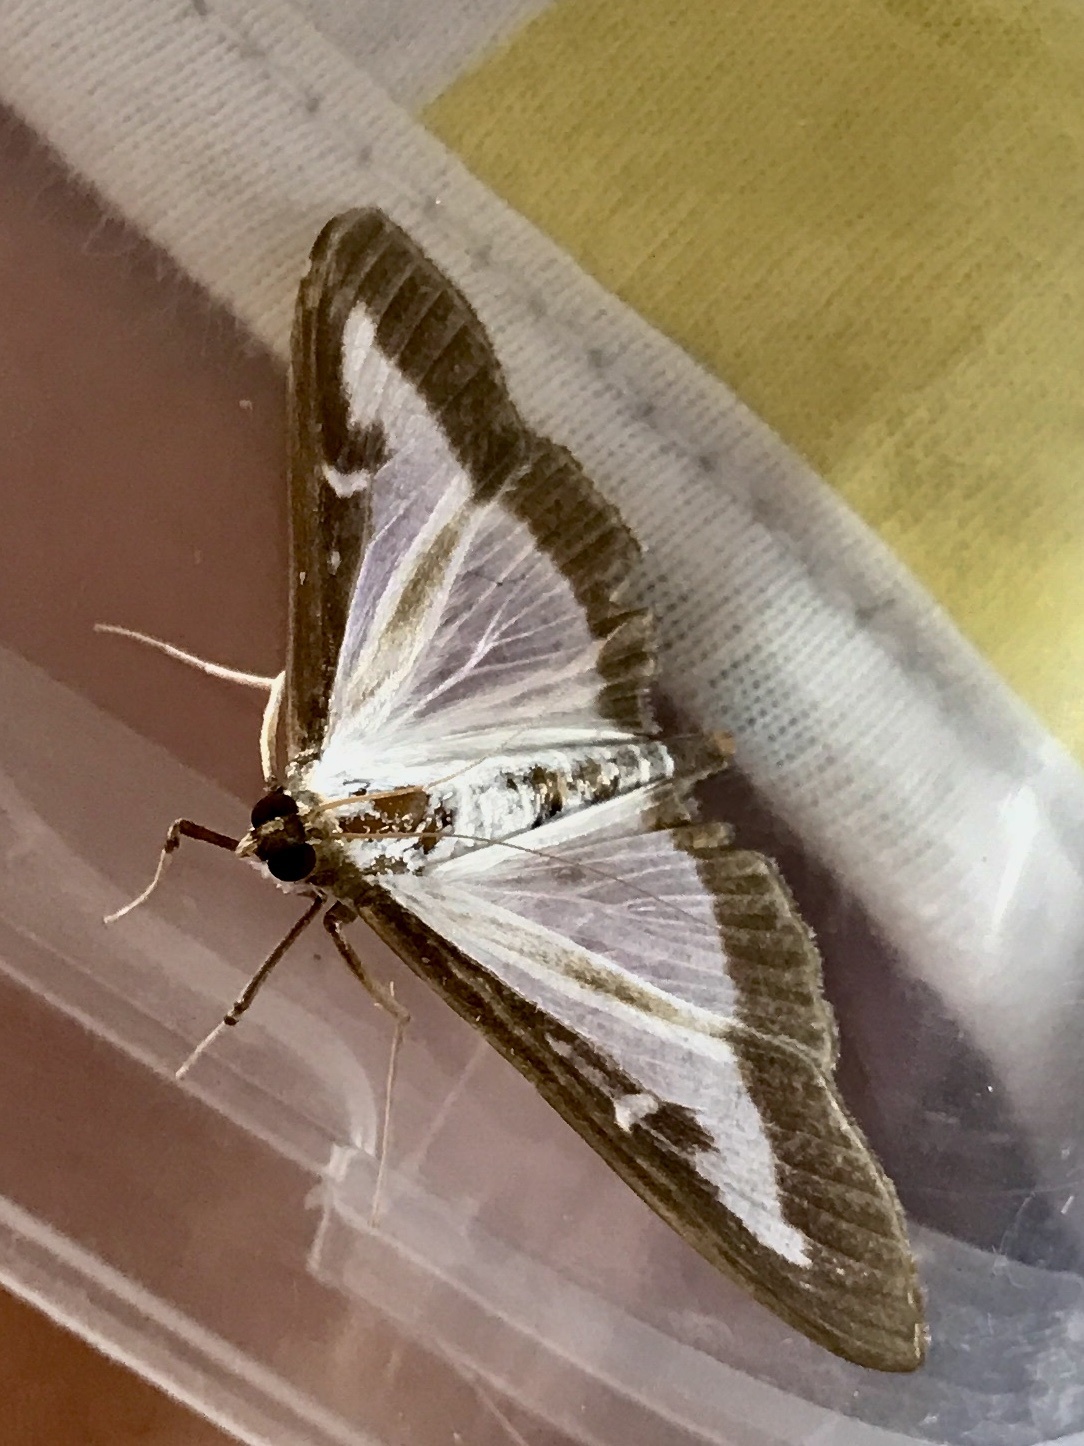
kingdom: Animalia
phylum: Arthropoda
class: Insecta
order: Lepidoptera
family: Crambidae
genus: Cydalima
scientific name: Cydalima perspectalis
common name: Box tree moth
